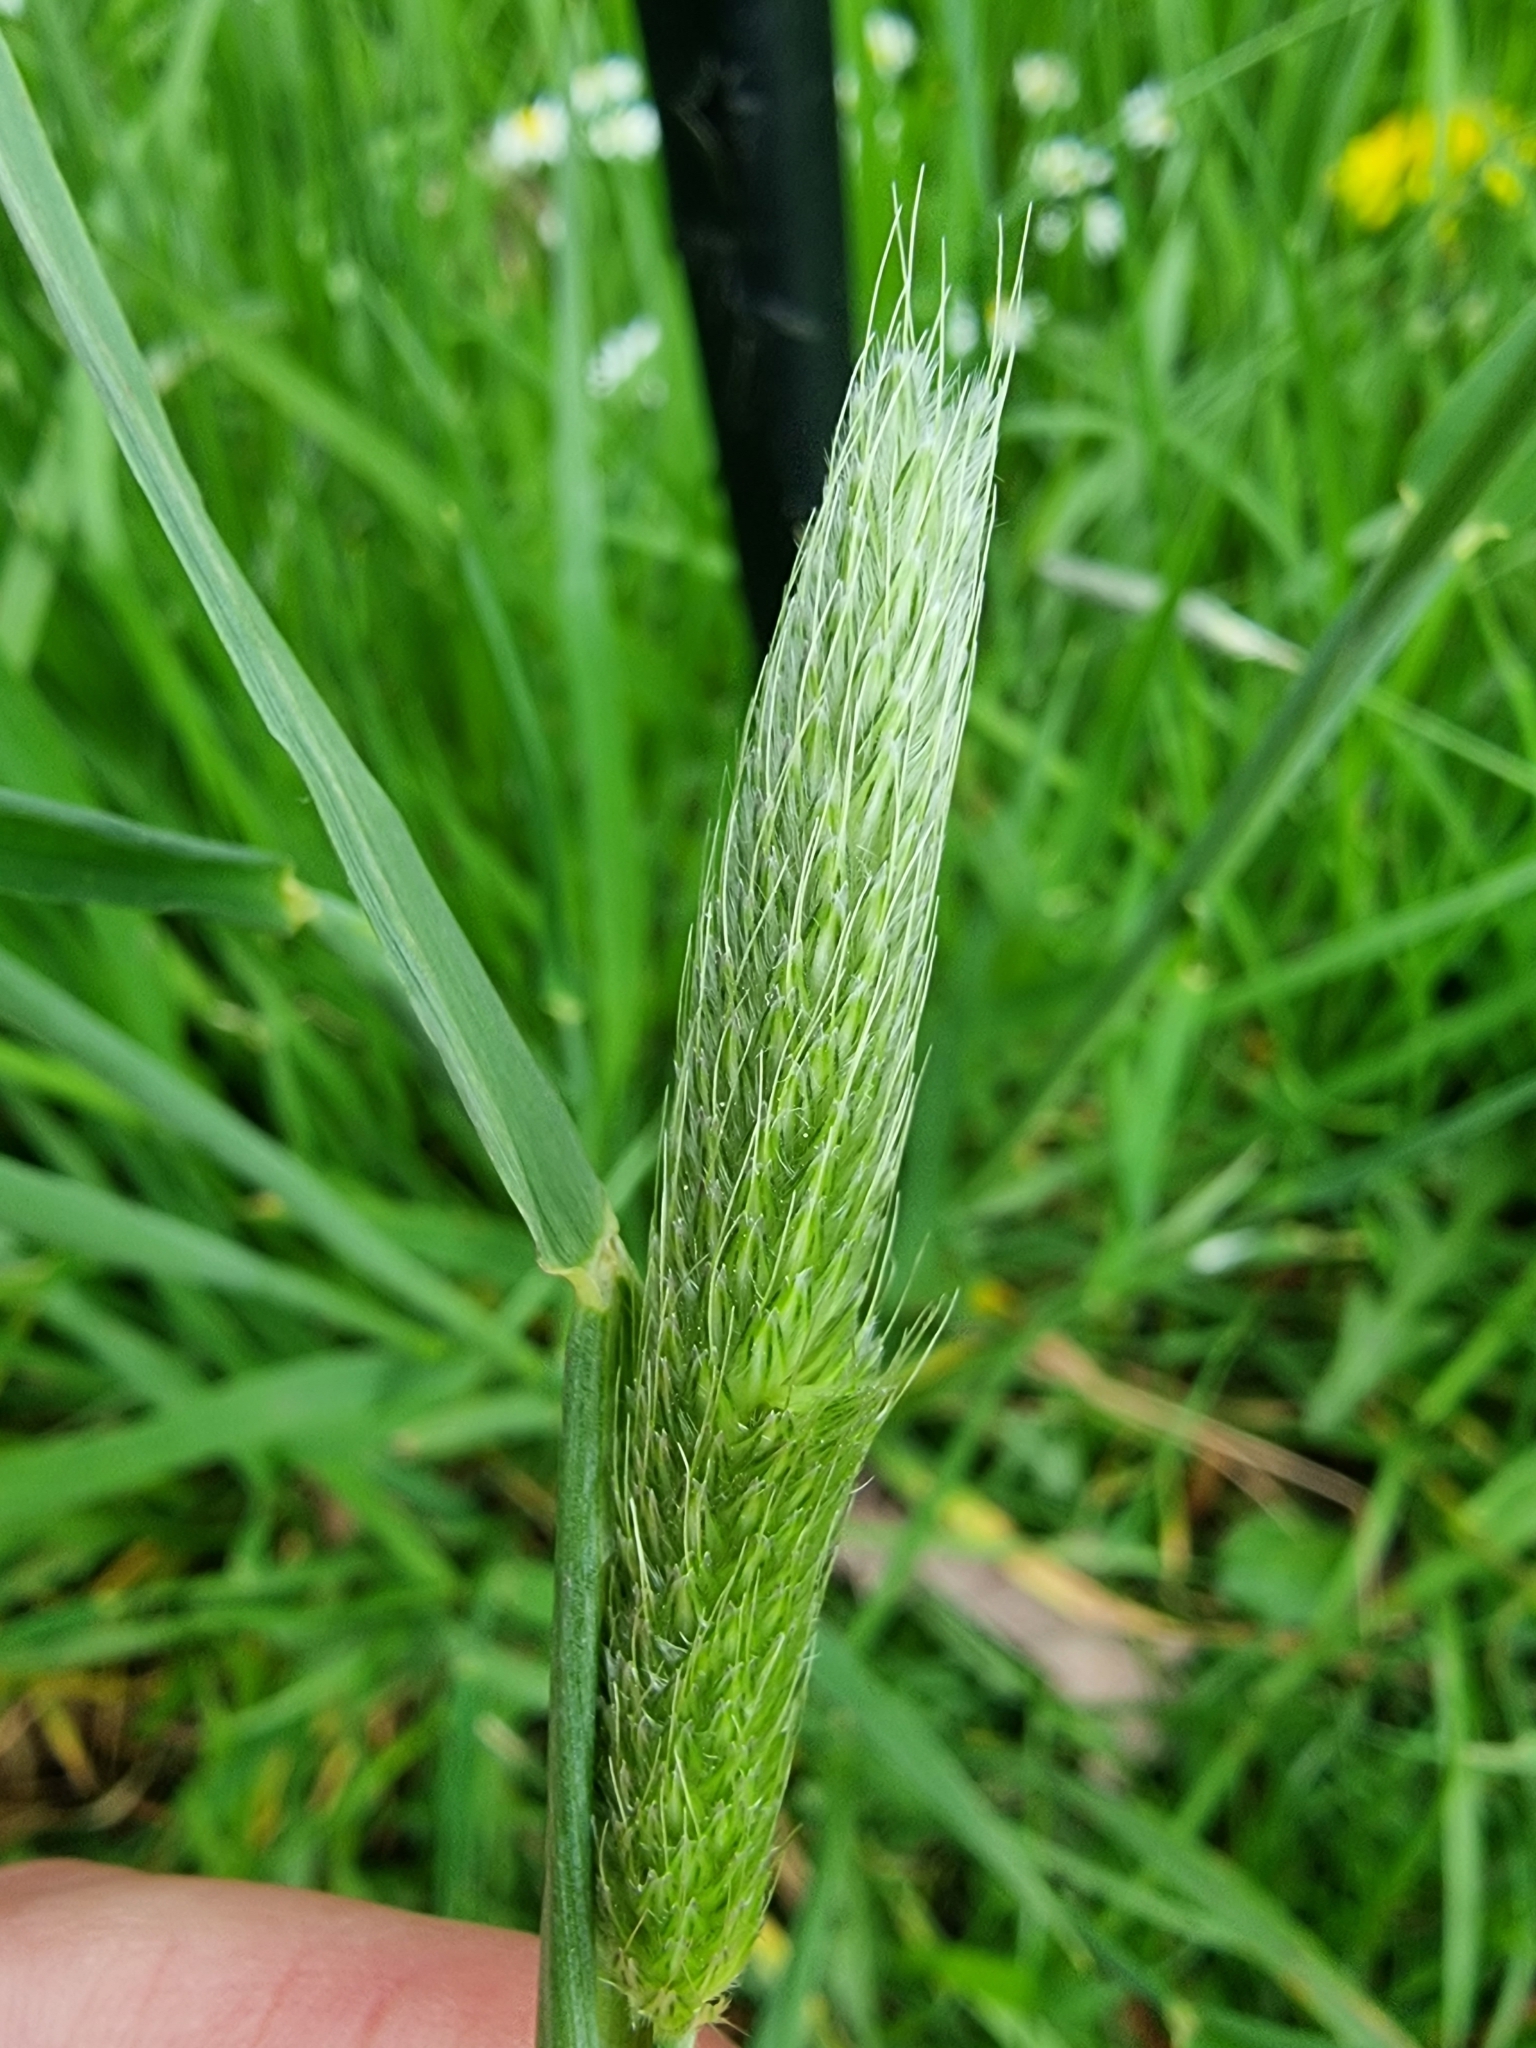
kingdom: Plantae
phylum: Tracheophyta
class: Liliopsida
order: Poales
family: Poaceae
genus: Alopecurus
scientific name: Alopecurus pratensis
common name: Meadow foxtail
